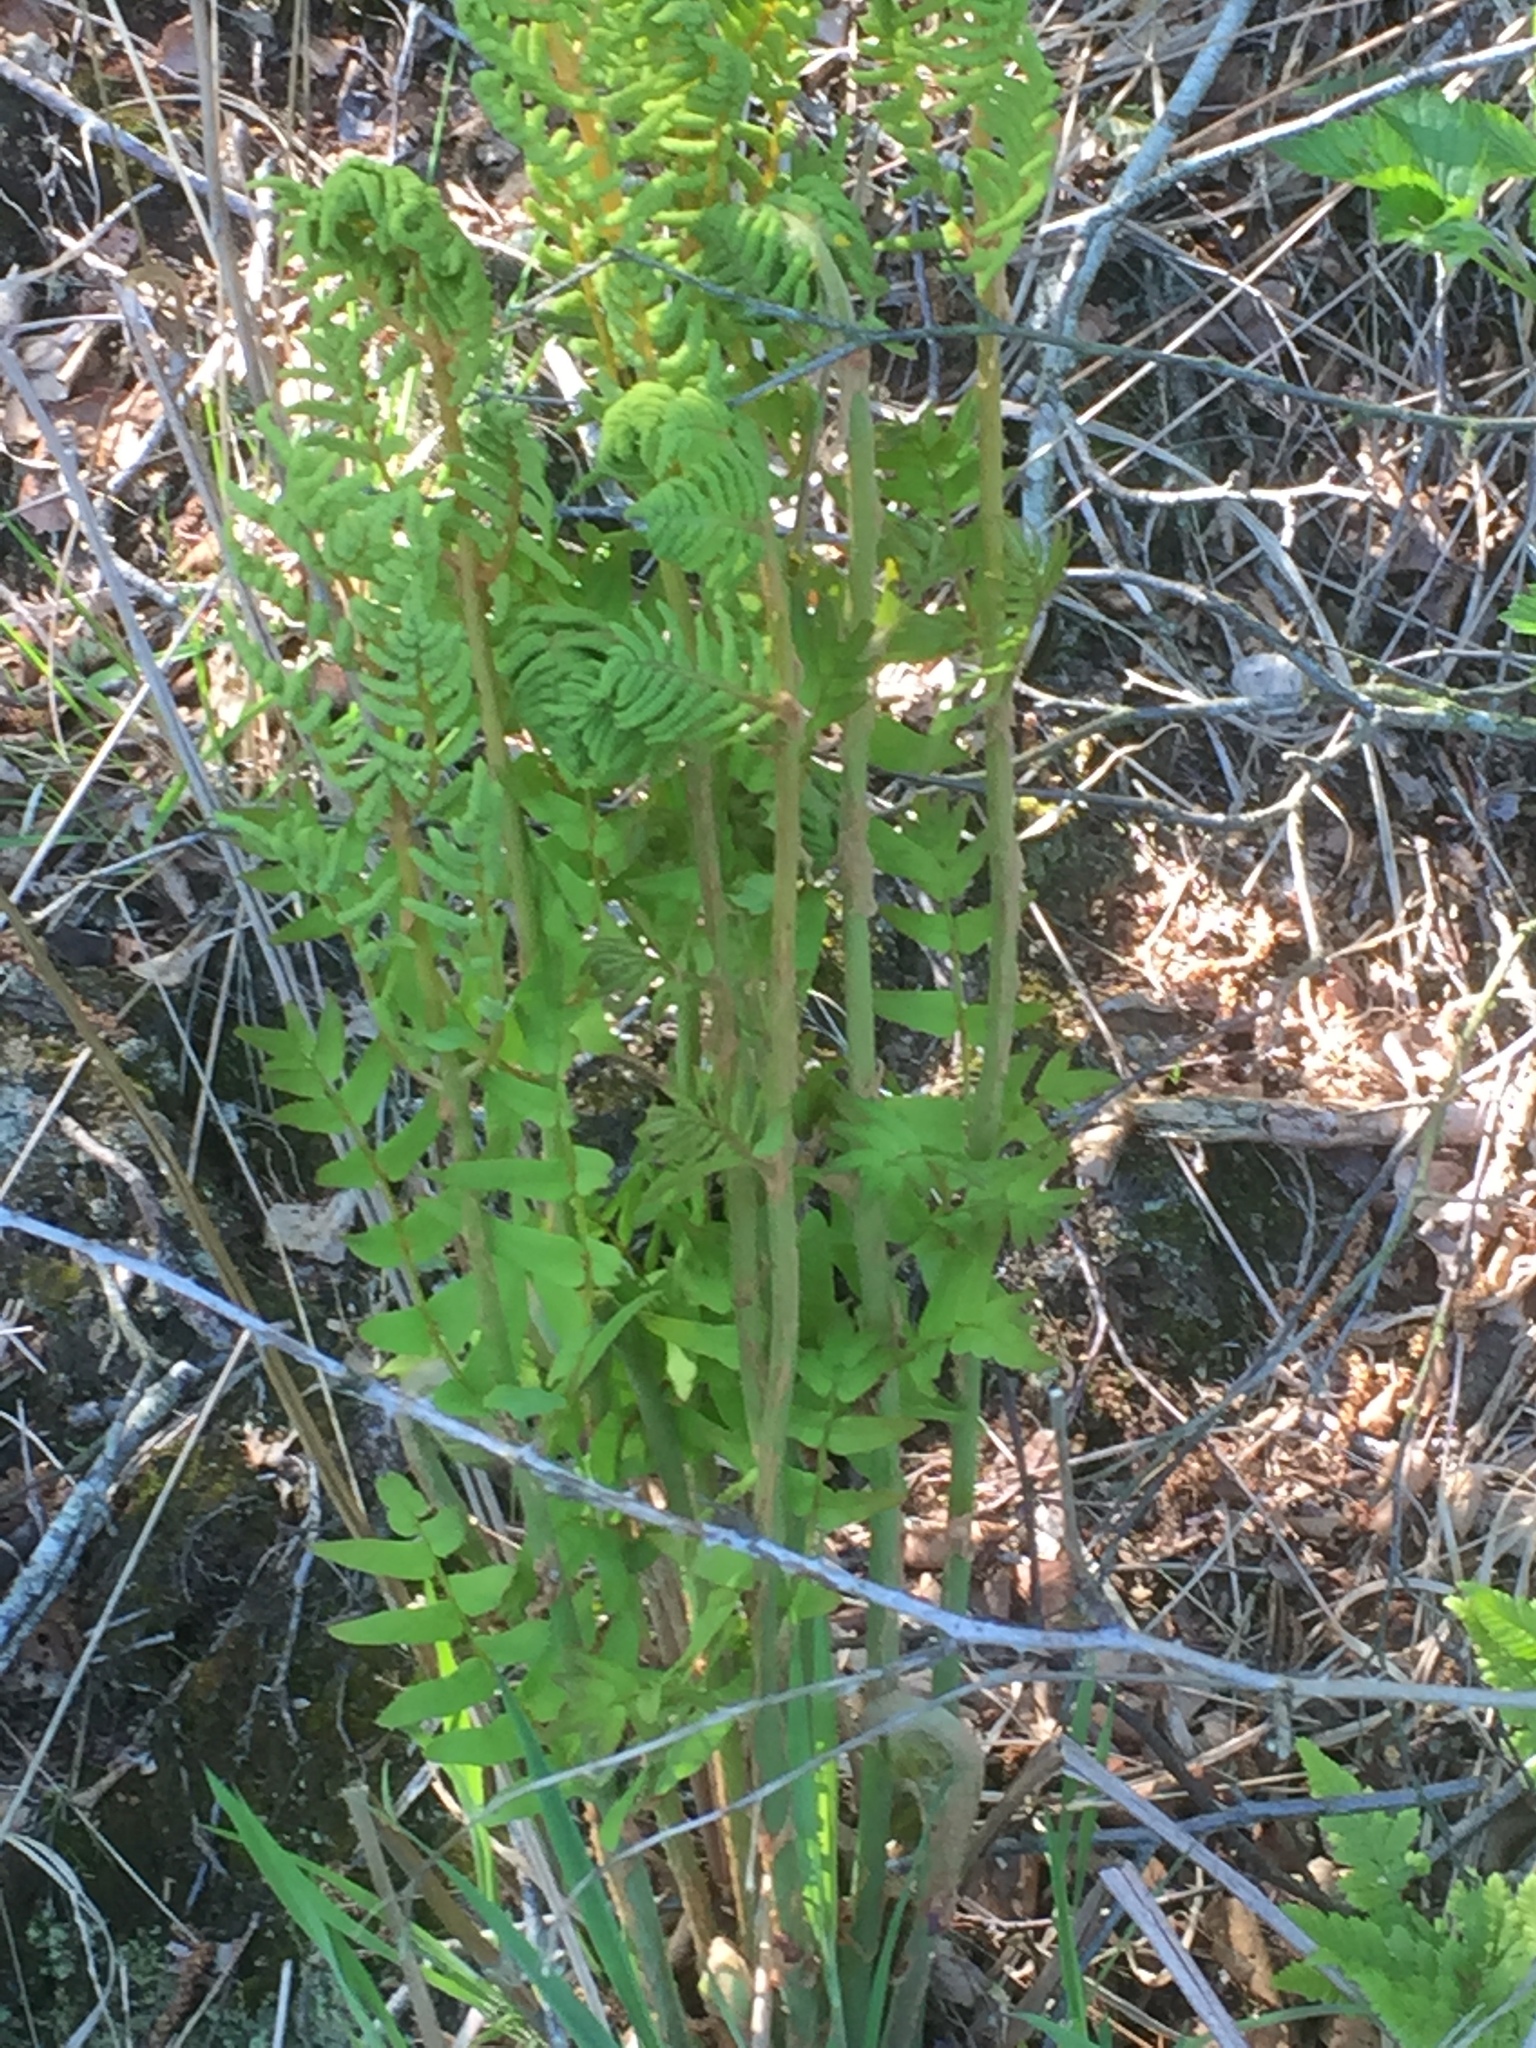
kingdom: Plantae
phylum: Tracheophyta
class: Polypodiopsida
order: Osmundales
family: Osmundaceae
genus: Osmunda
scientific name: Osmunda regalis
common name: Royal fern
